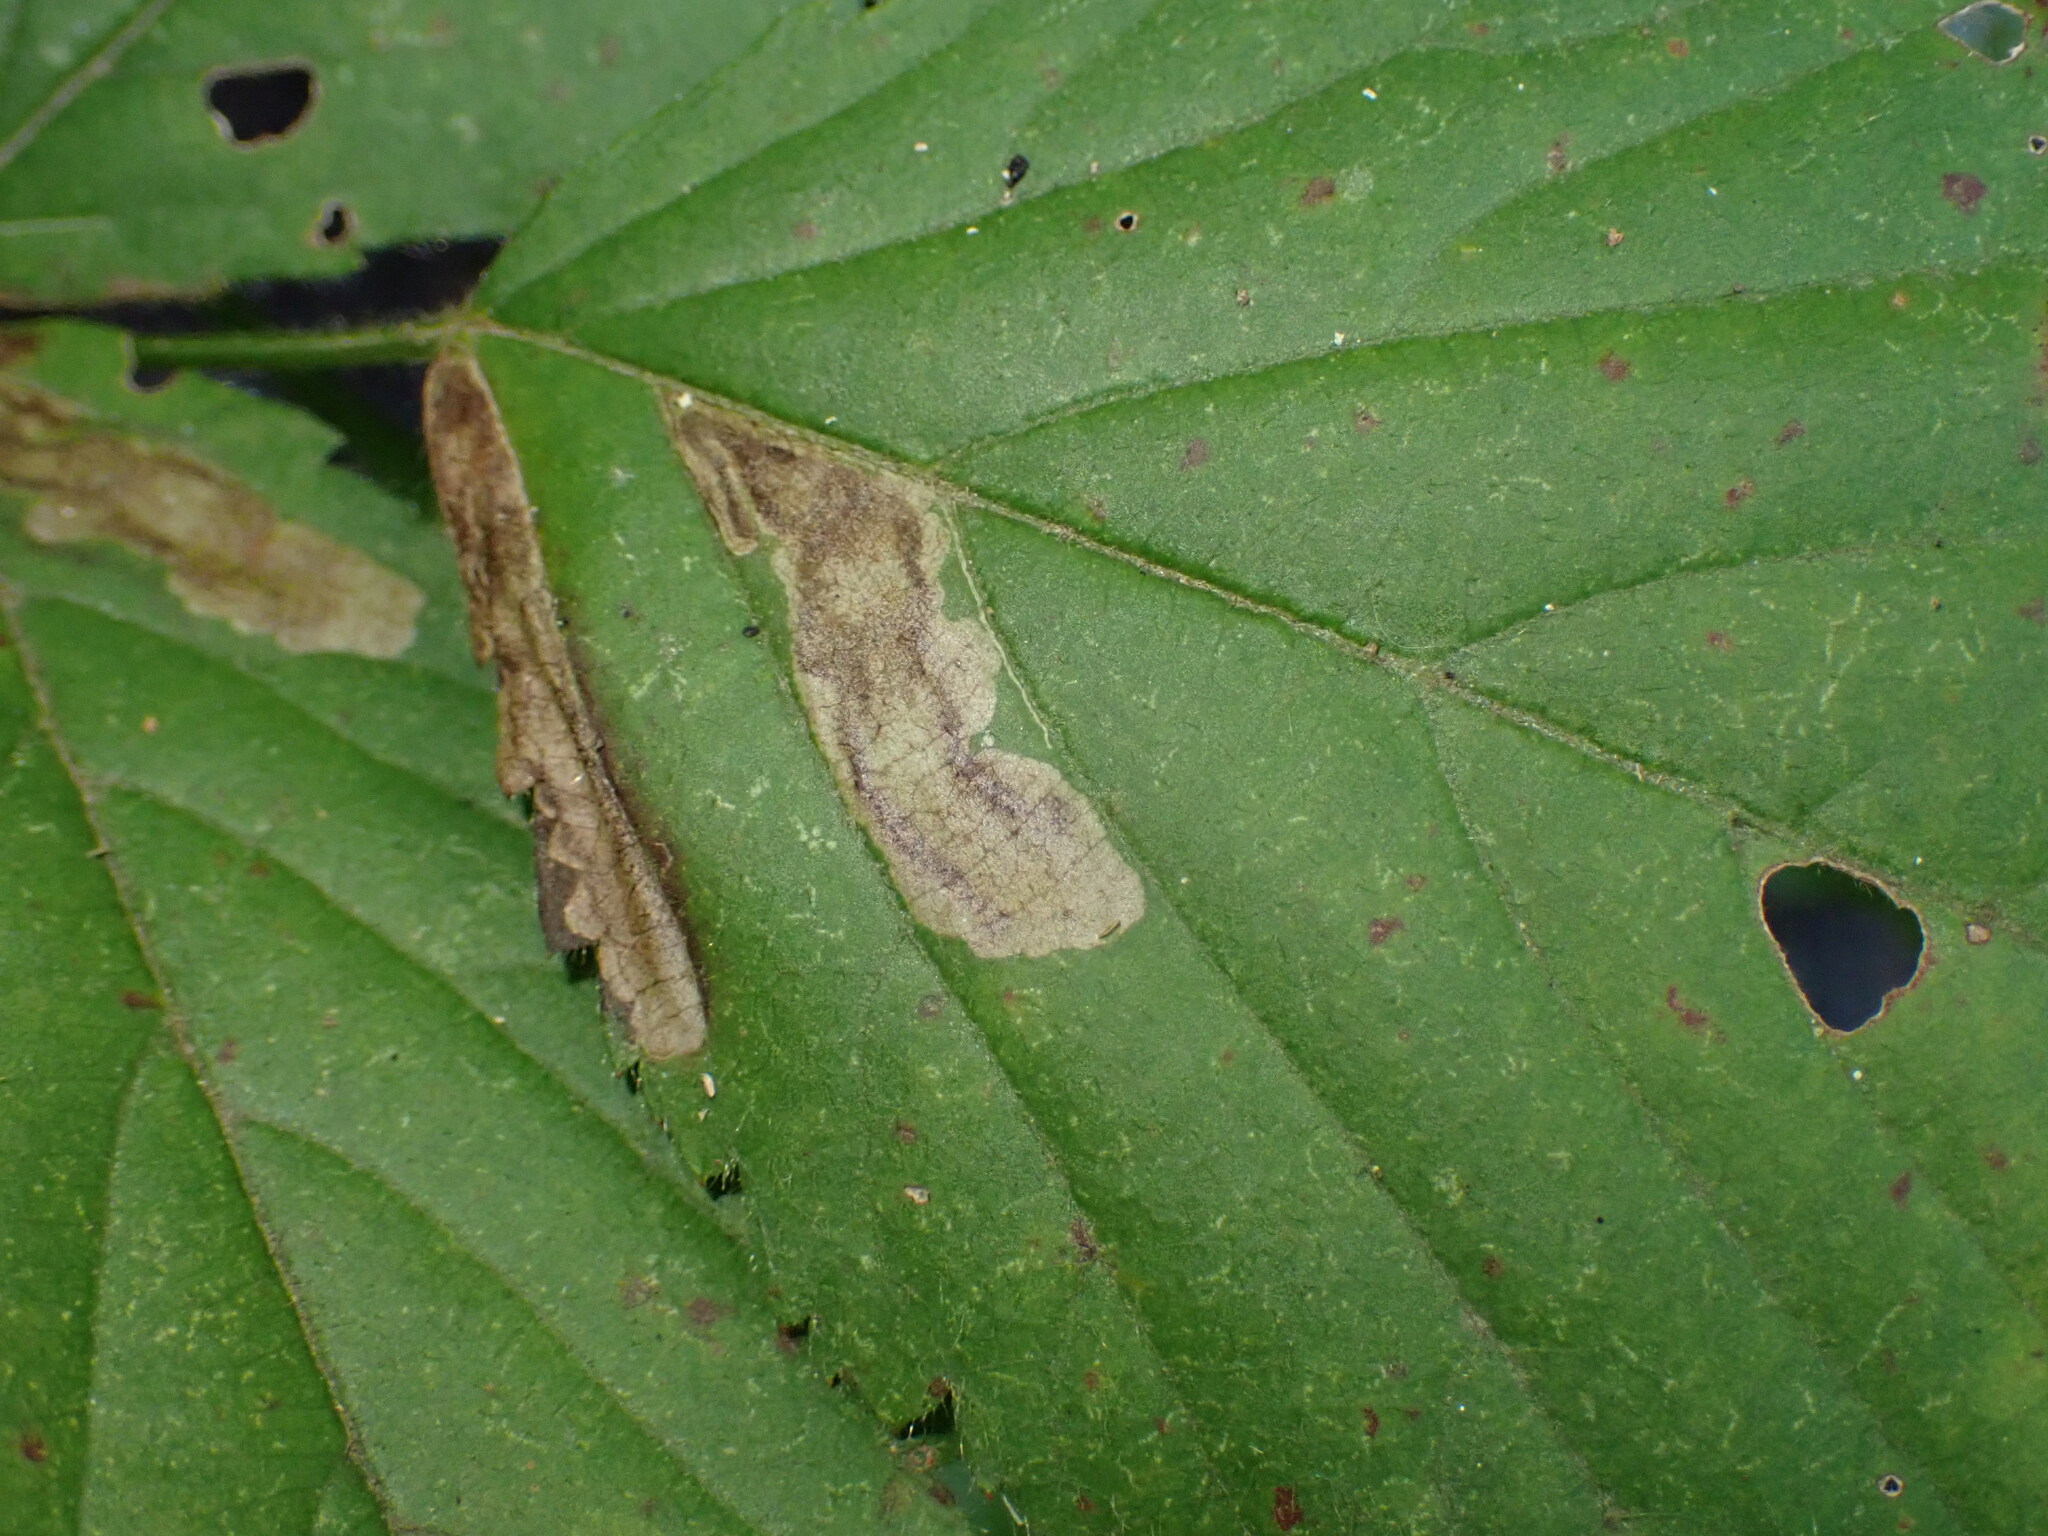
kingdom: Animalia
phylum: Arthropoda
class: Insecta
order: Lepidoptera
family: Nepticulidae
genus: Ectoedemia
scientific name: Ectoedemia rubifoliella
